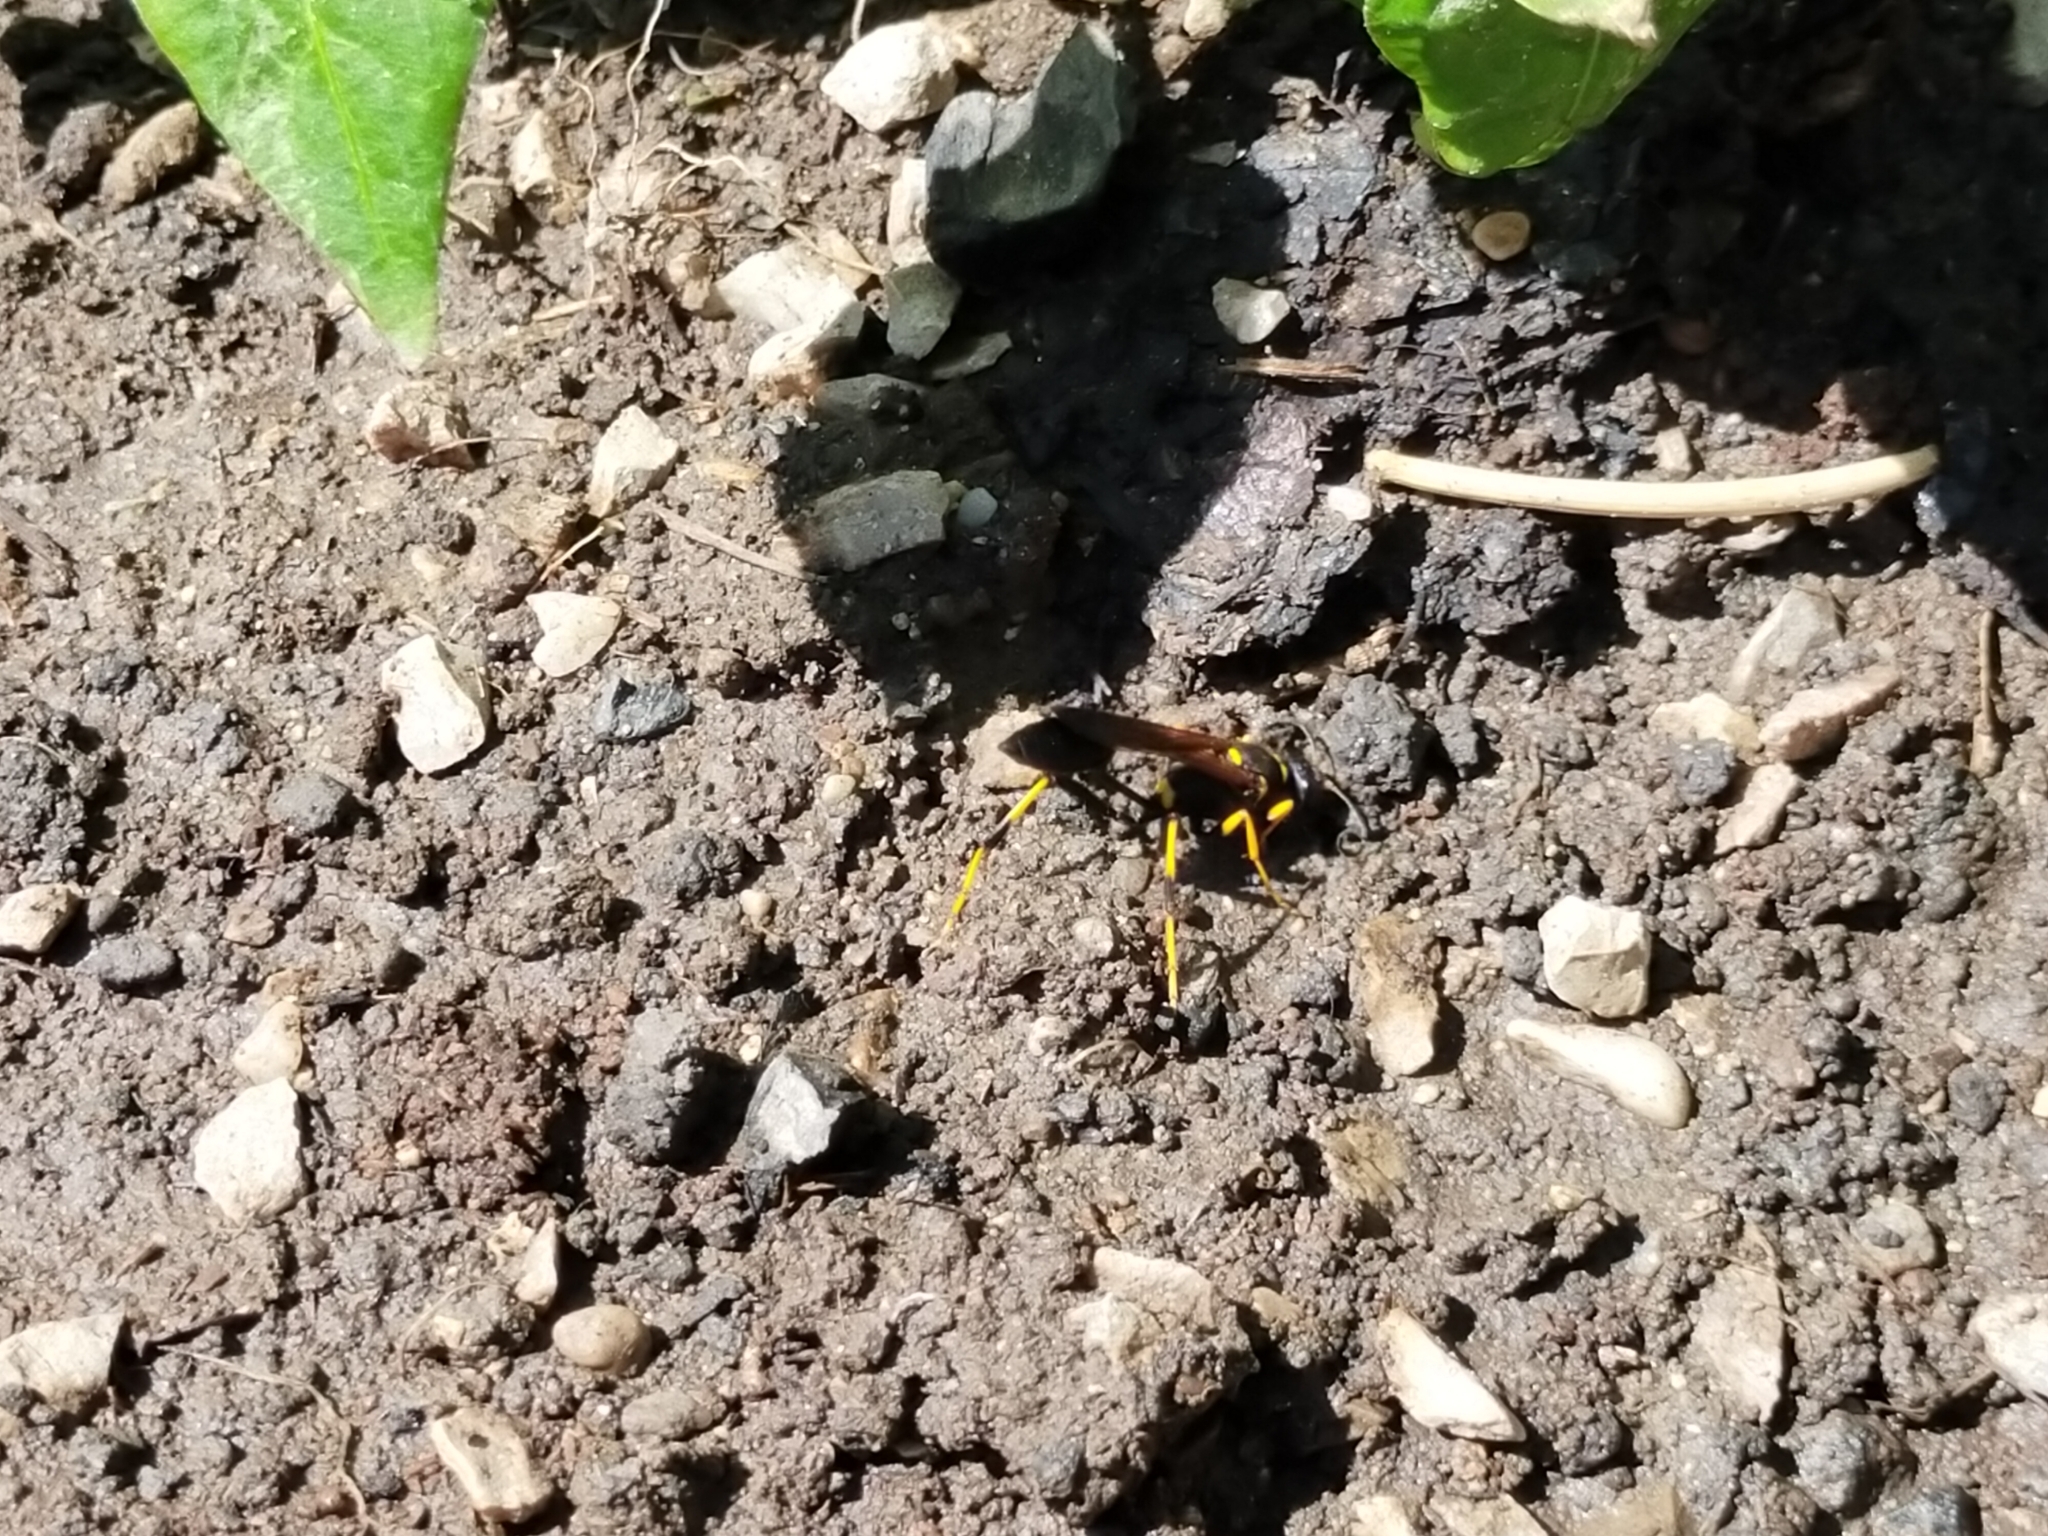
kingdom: Animalia
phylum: Arthropoda
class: Insecta
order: Hymenoptera
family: Sphecidae
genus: Sceliphron
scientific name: Sceliphron caementarium
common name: Mud dauber
